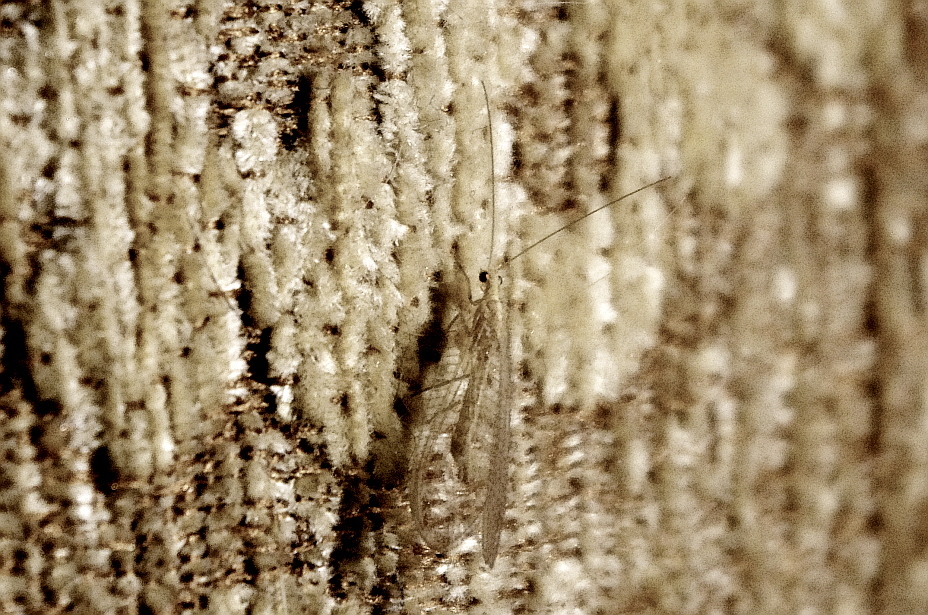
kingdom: Animalia
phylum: Arthropoda
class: Insecta
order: Neuroptera
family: Chrysopidae
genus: Chrysoperla
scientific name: Chrysoperla
